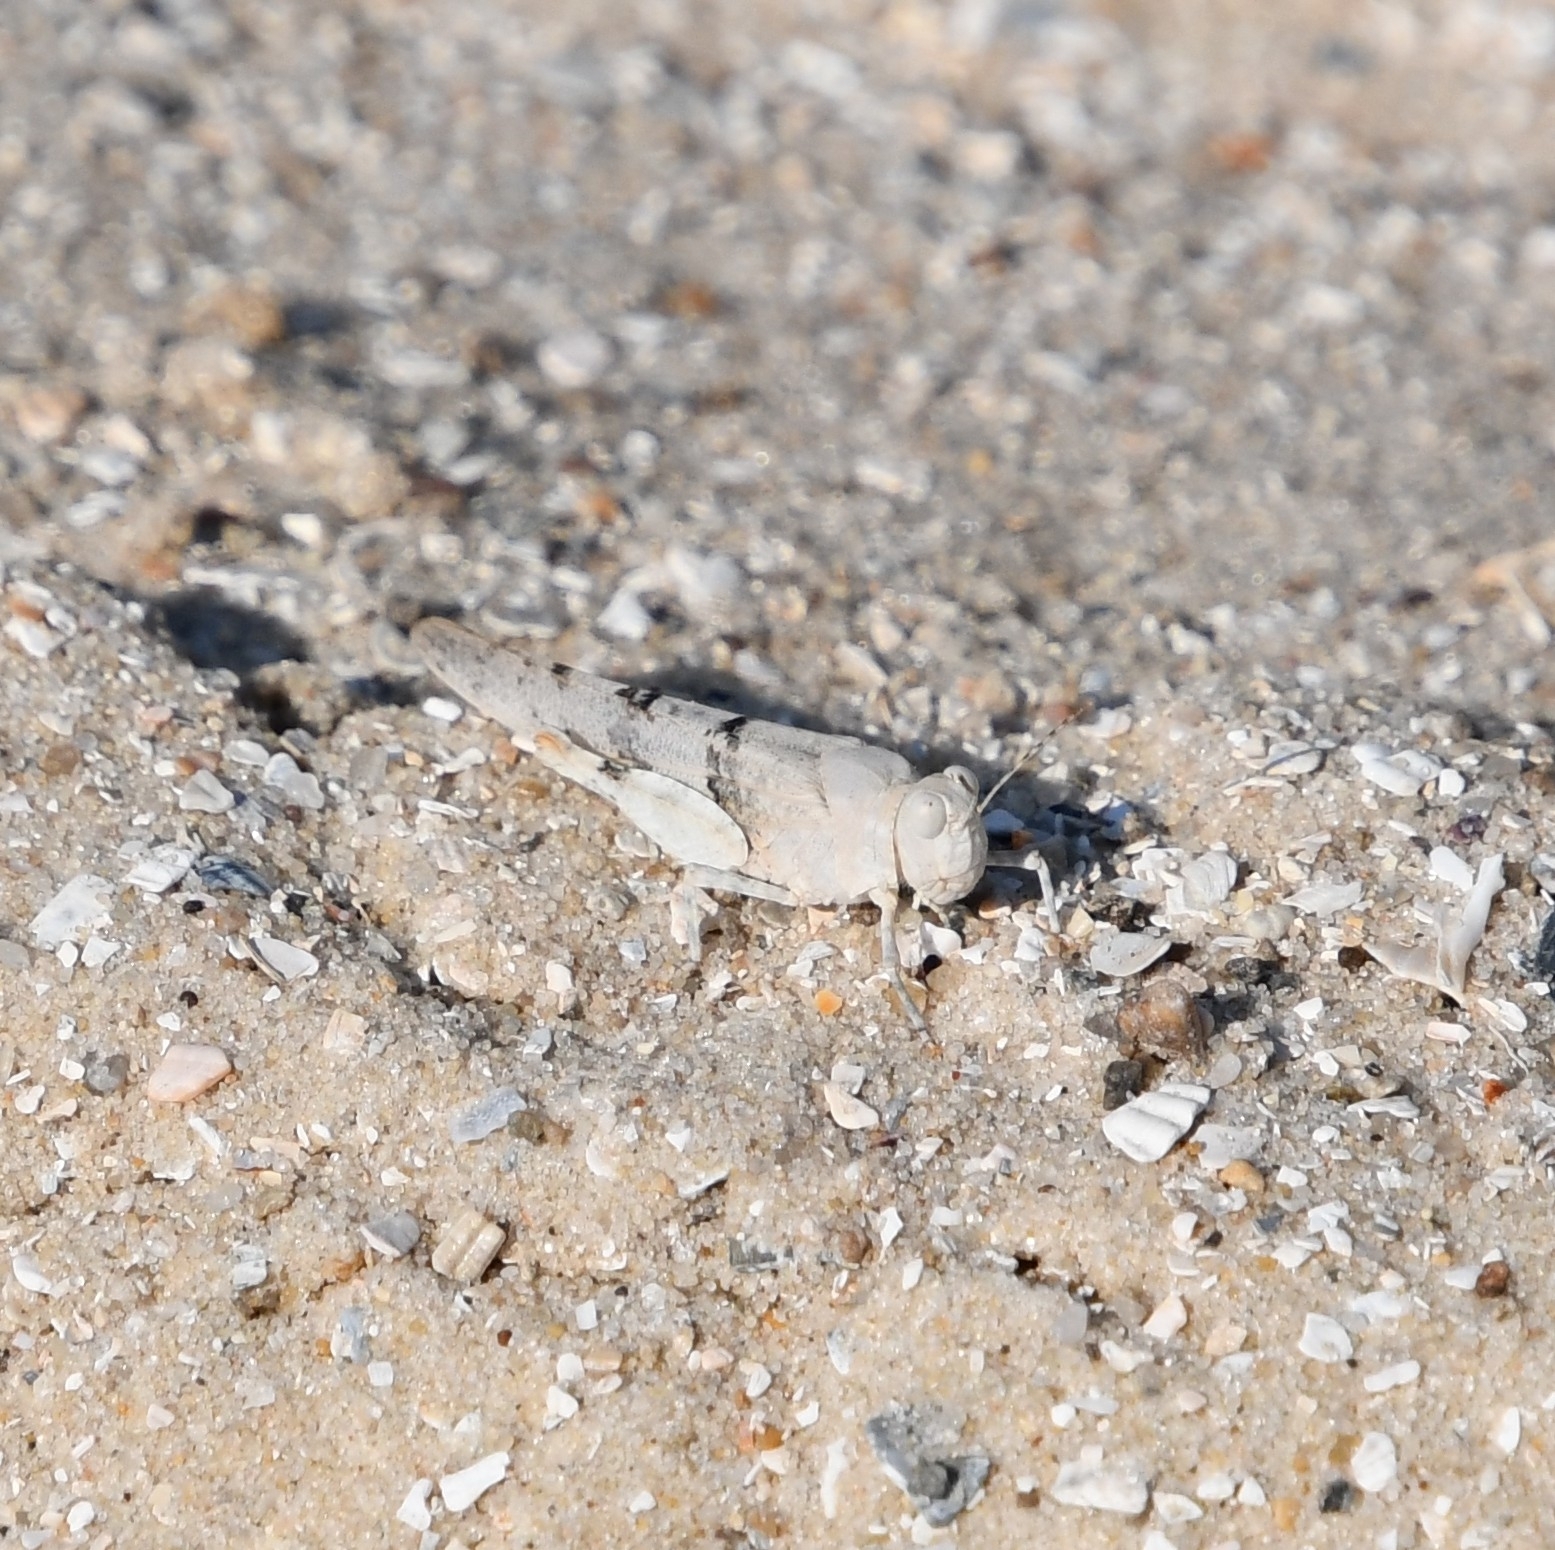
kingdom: Animalia
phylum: Arthropoda
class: Insecta
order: Orthoptera
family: Acrididae
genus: Sphingonotus
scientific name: Sphingonotus caerulans
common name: Blue-winged locust
